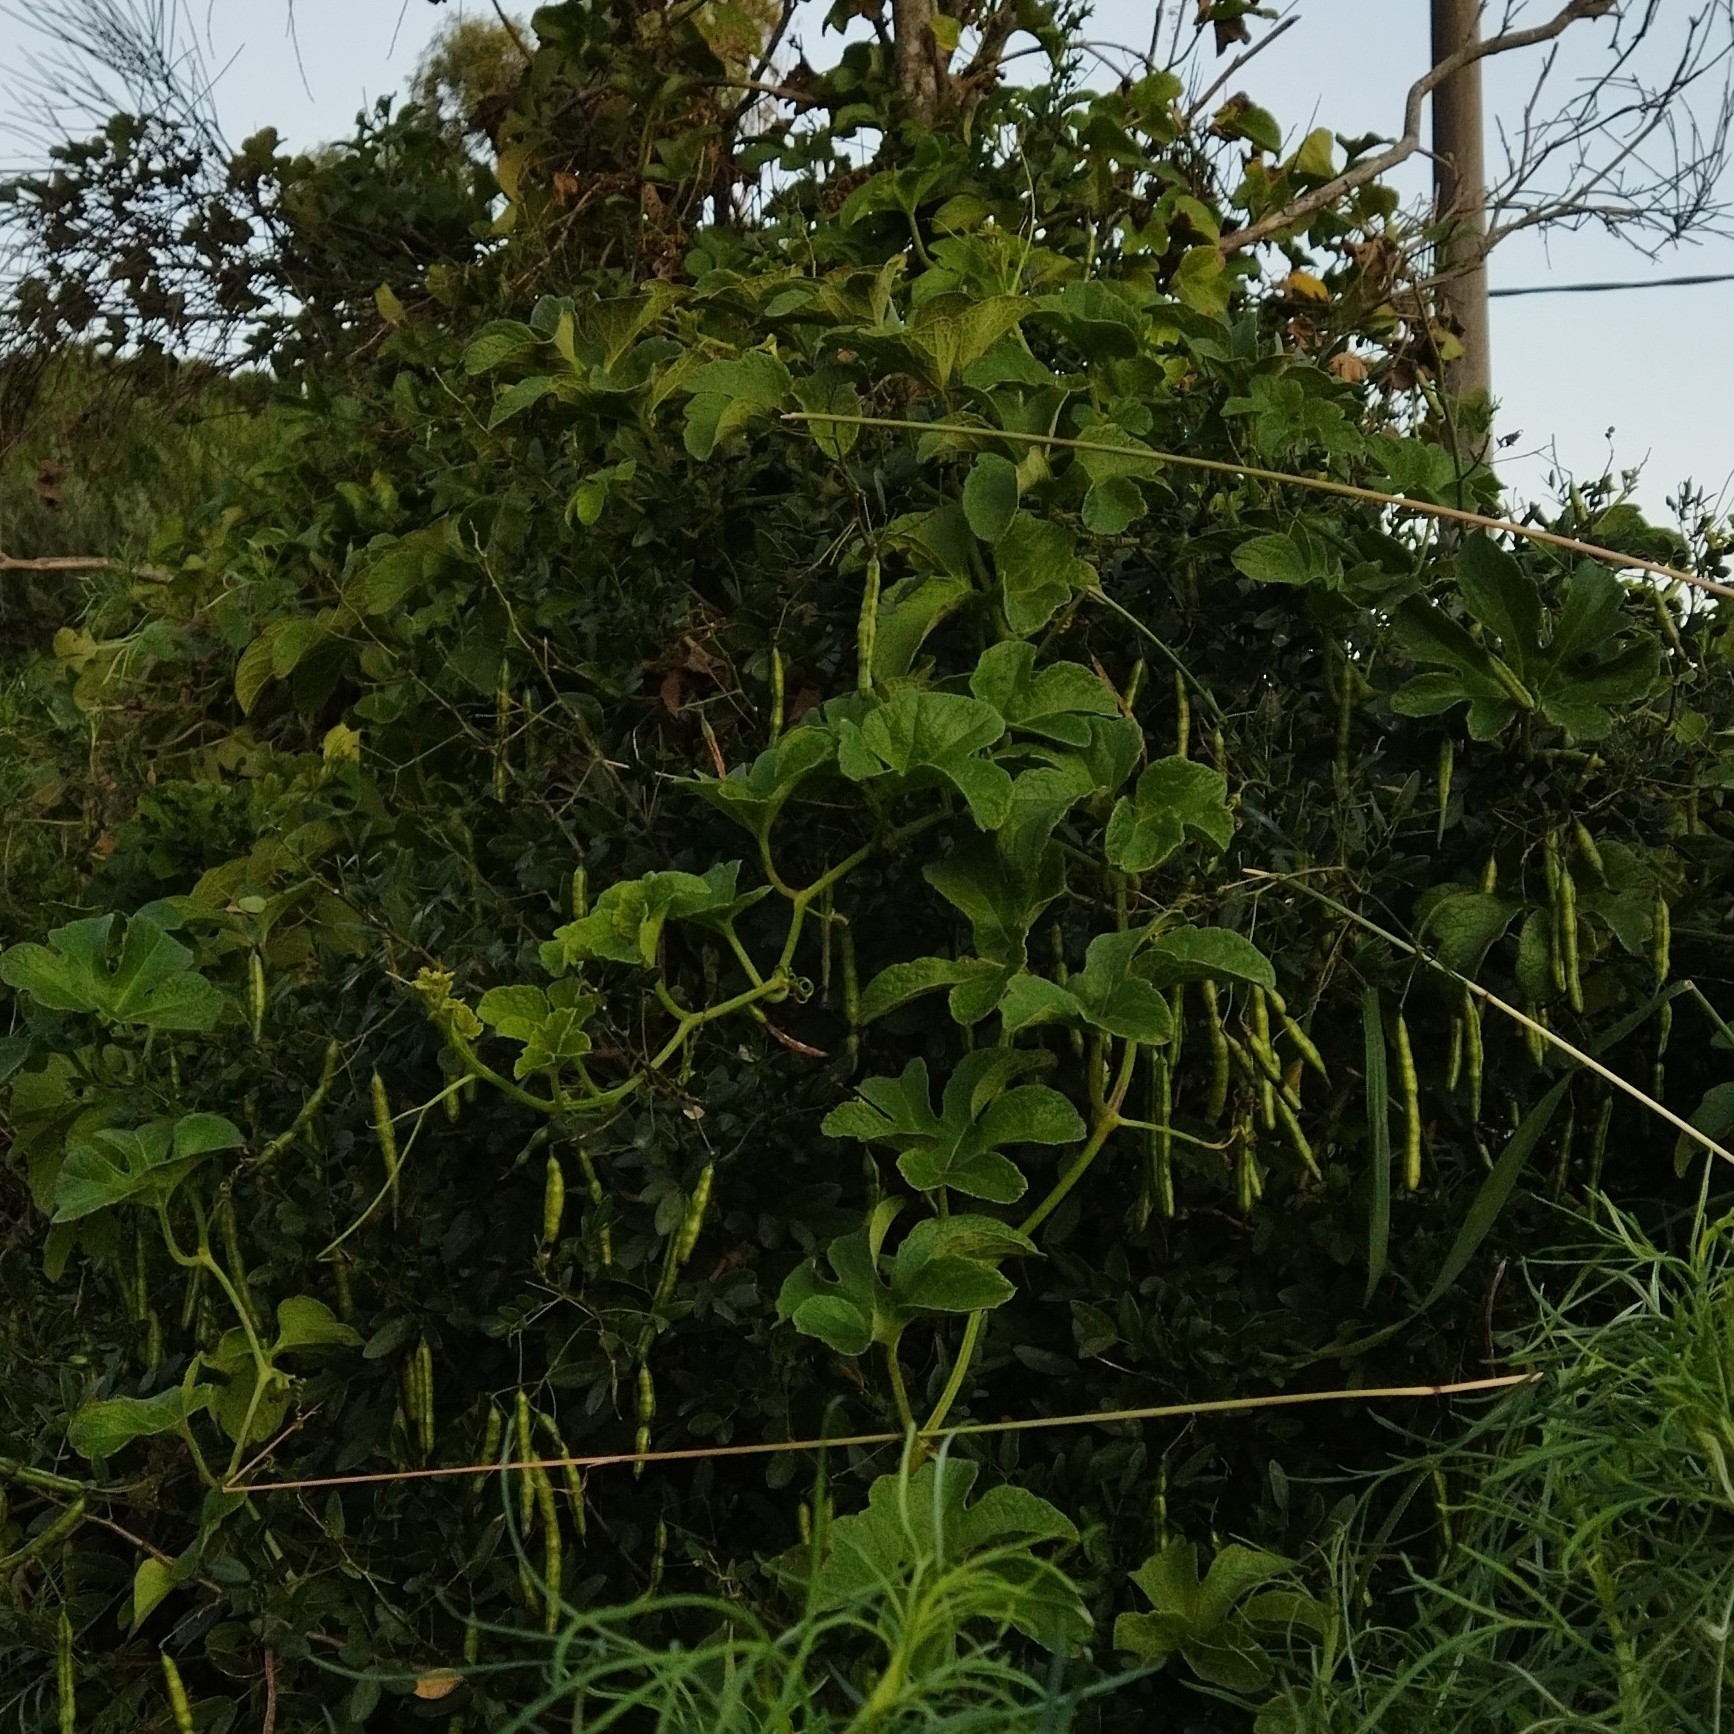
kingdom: Plantae
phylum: Tracheophyta
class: Magnoliopsida
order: Cucurbitales
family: Cucurbitaceae
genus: Cayaponia
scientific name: Cayaponia martiana
